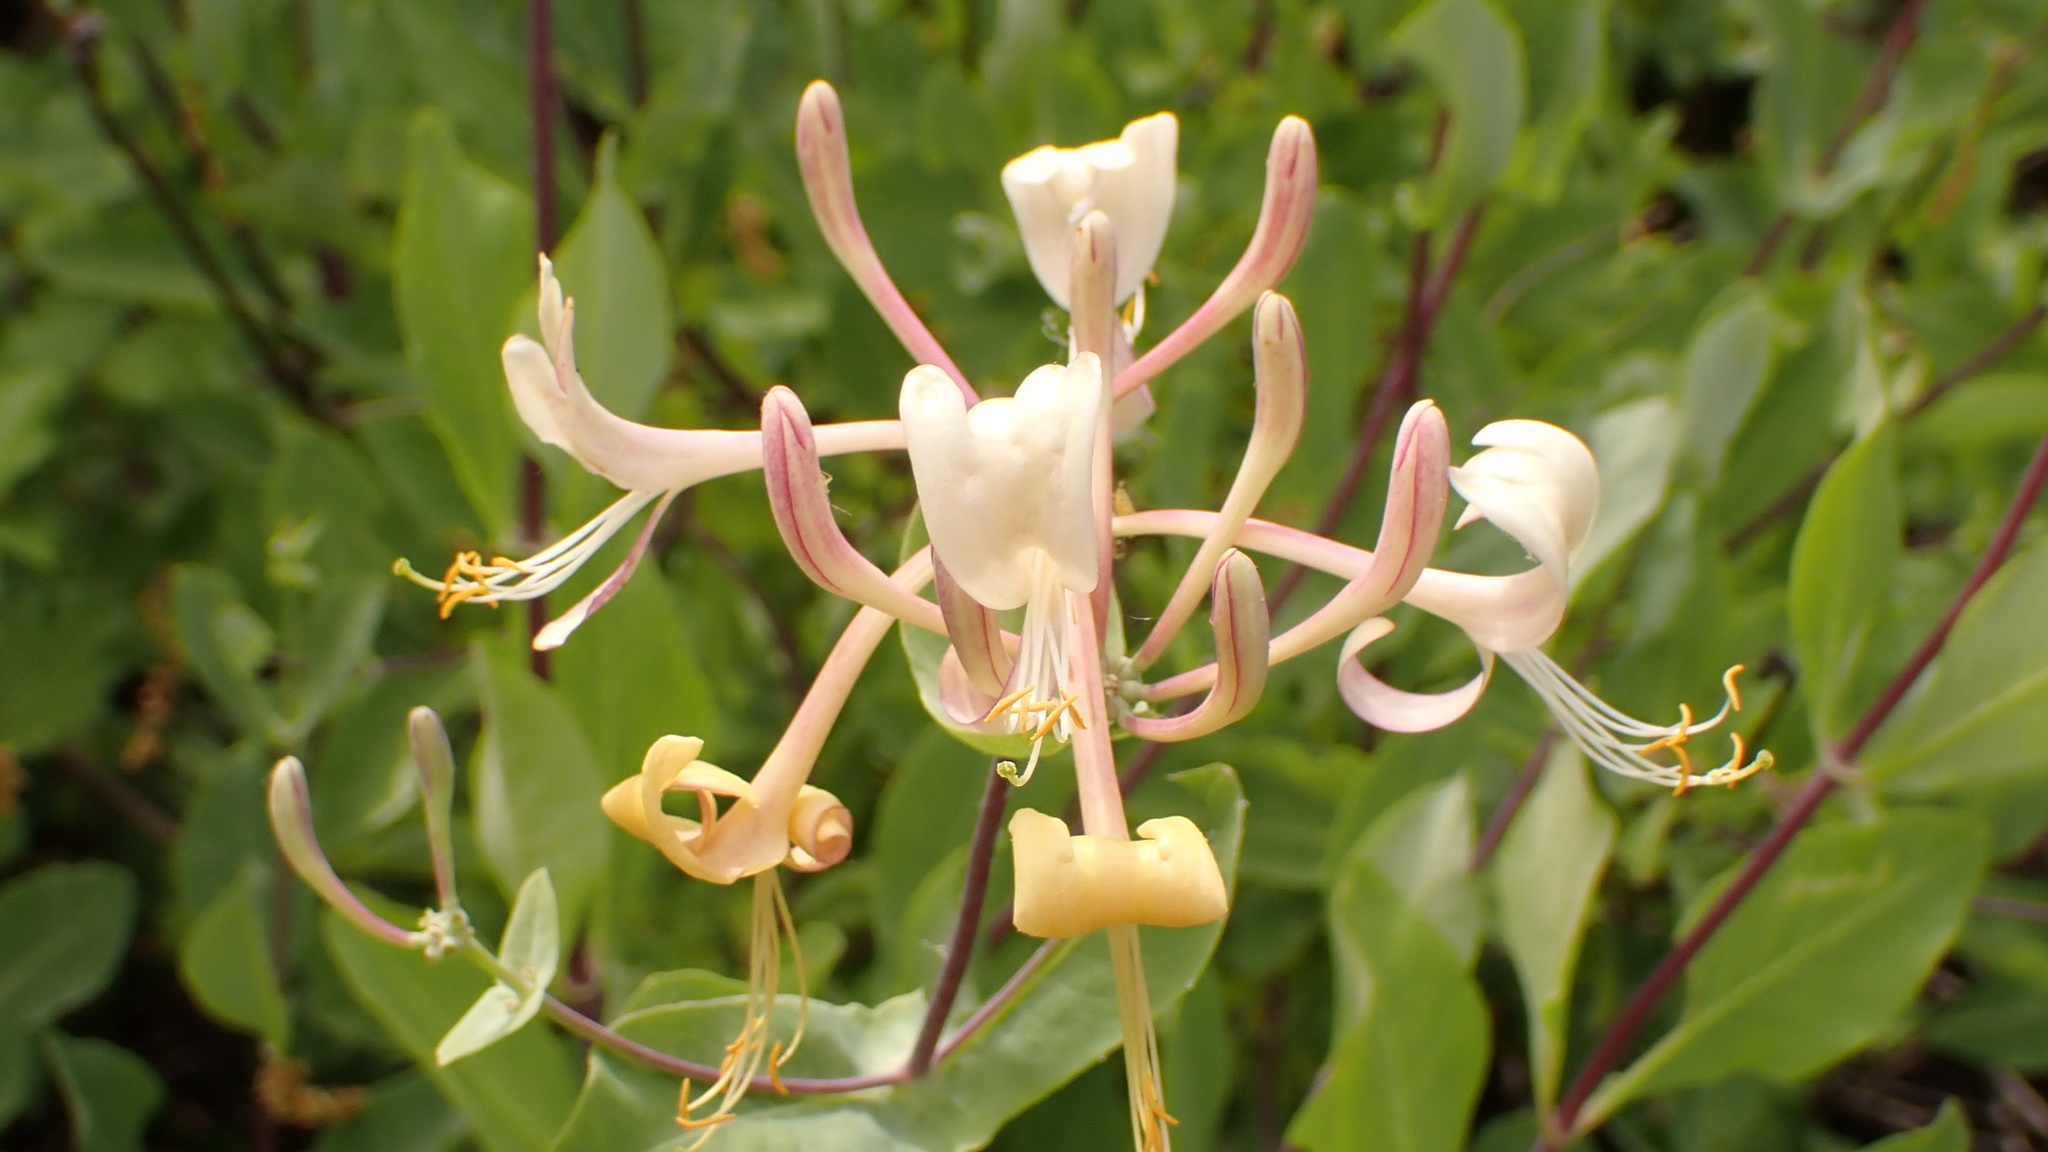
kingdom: Plantae
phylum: Tracheophyta
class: Magnoliopsida
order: Dipsacales
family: Caprifoliaceae
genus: Lonicera
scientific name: Lonicera etrusca
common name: Etruscan honeysuckle
